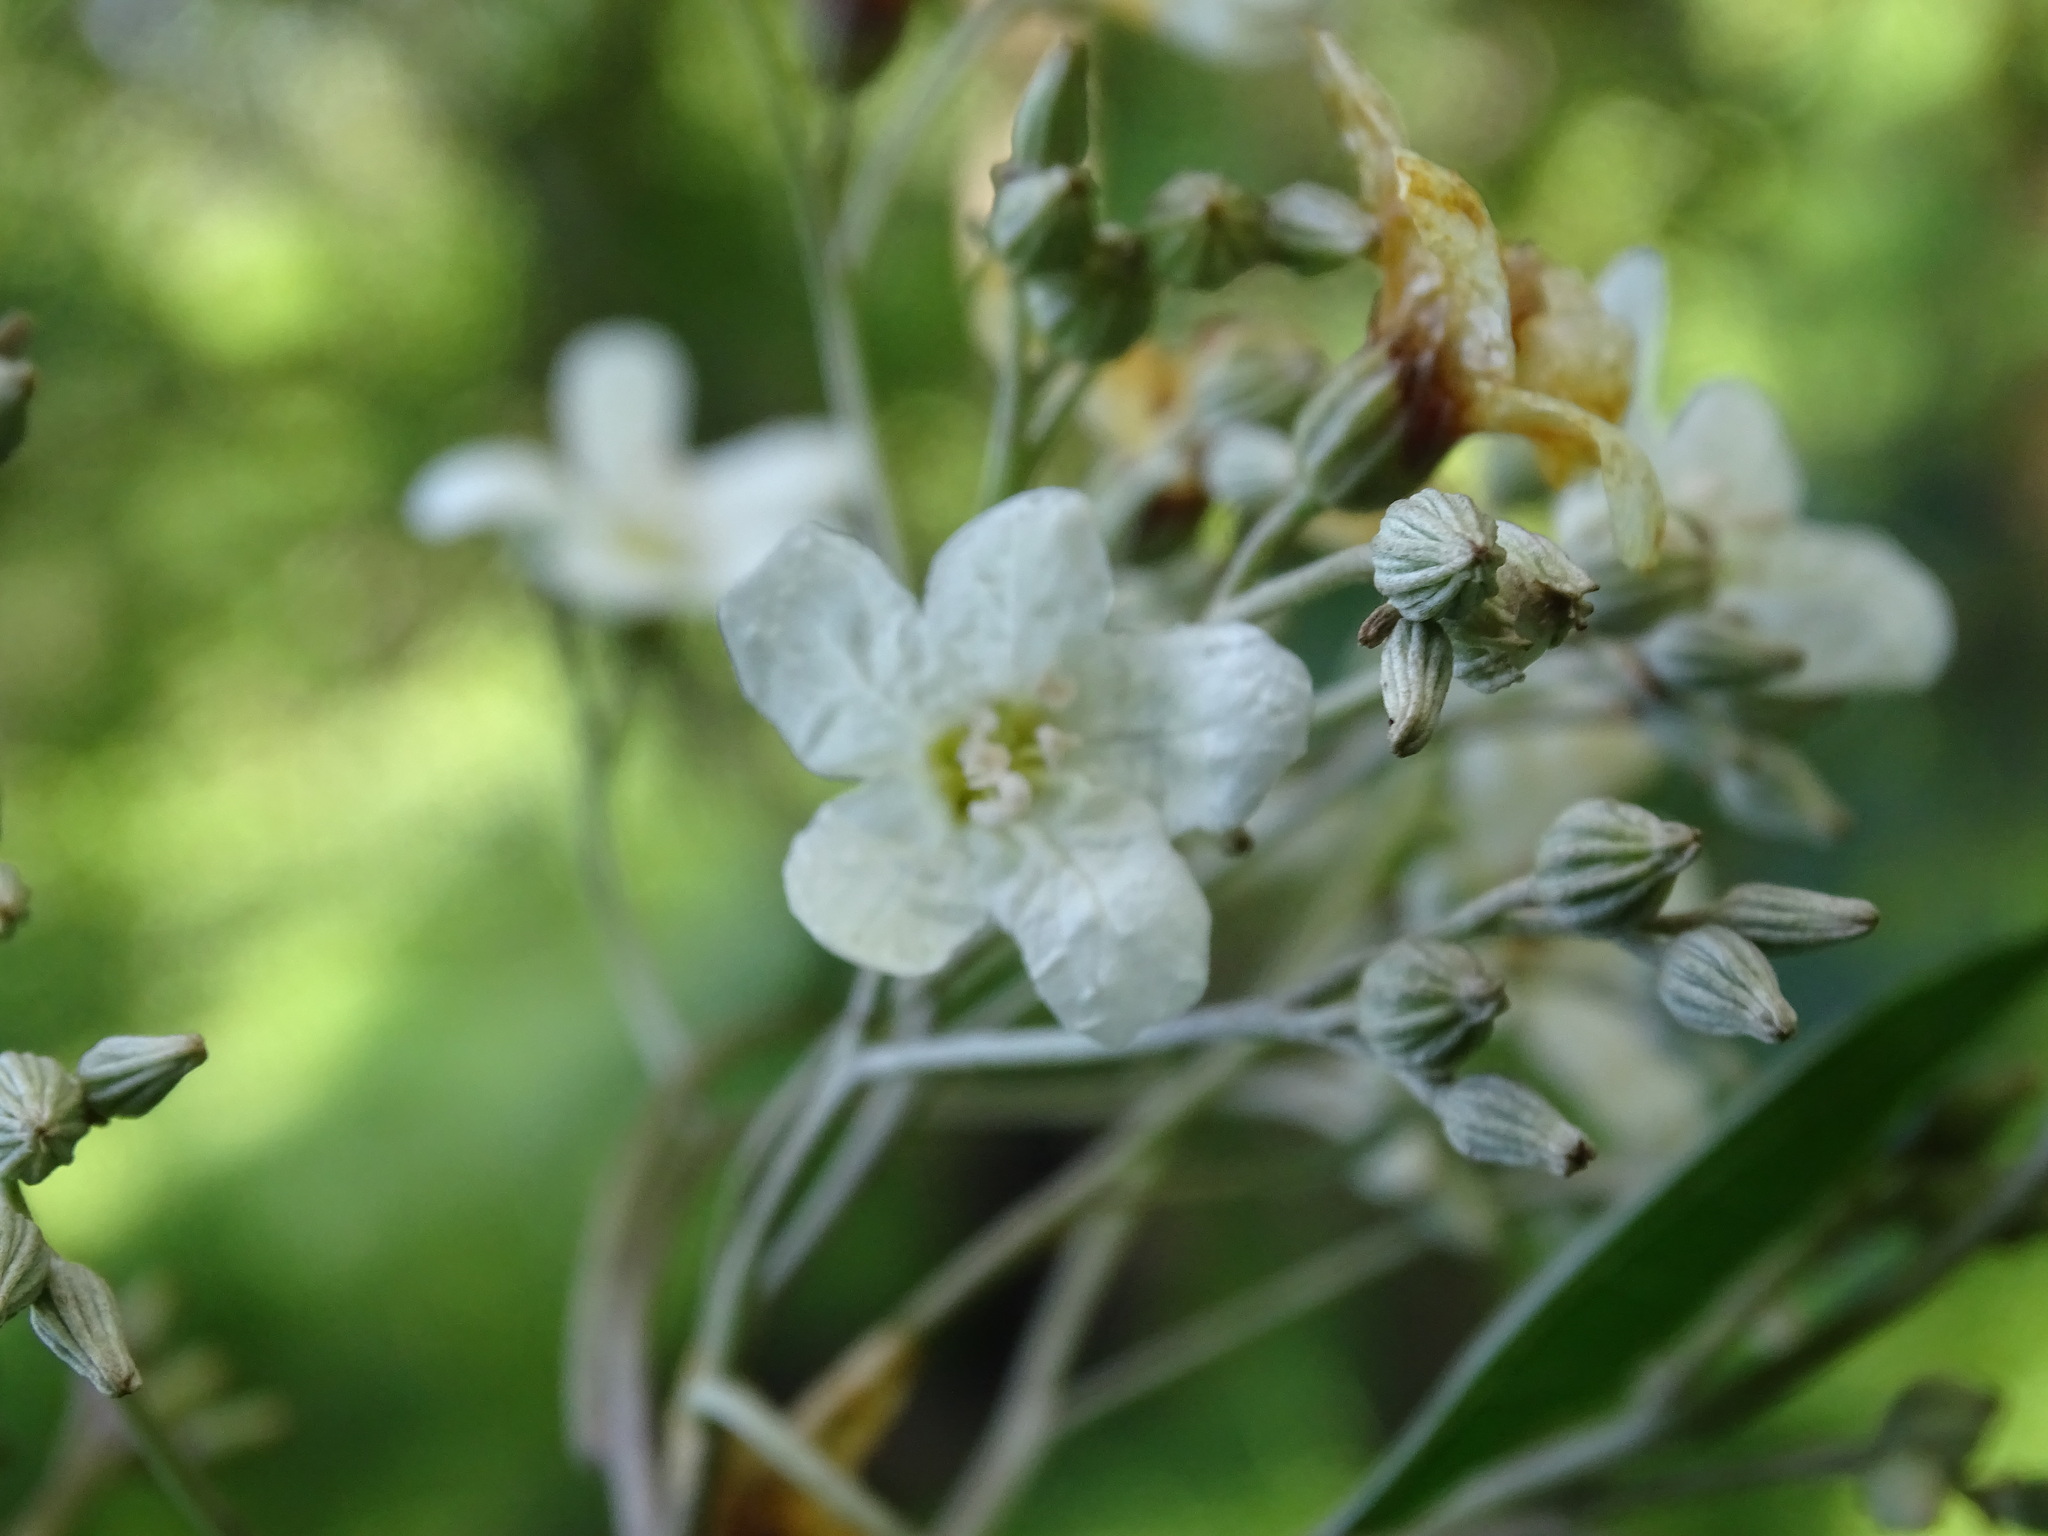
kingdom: Plantae
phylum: Tracheophyta
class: Magnoliopsida
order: Boraginales
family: Cordiaceae
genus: Cordia
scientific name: Cordia elaeagnoides
